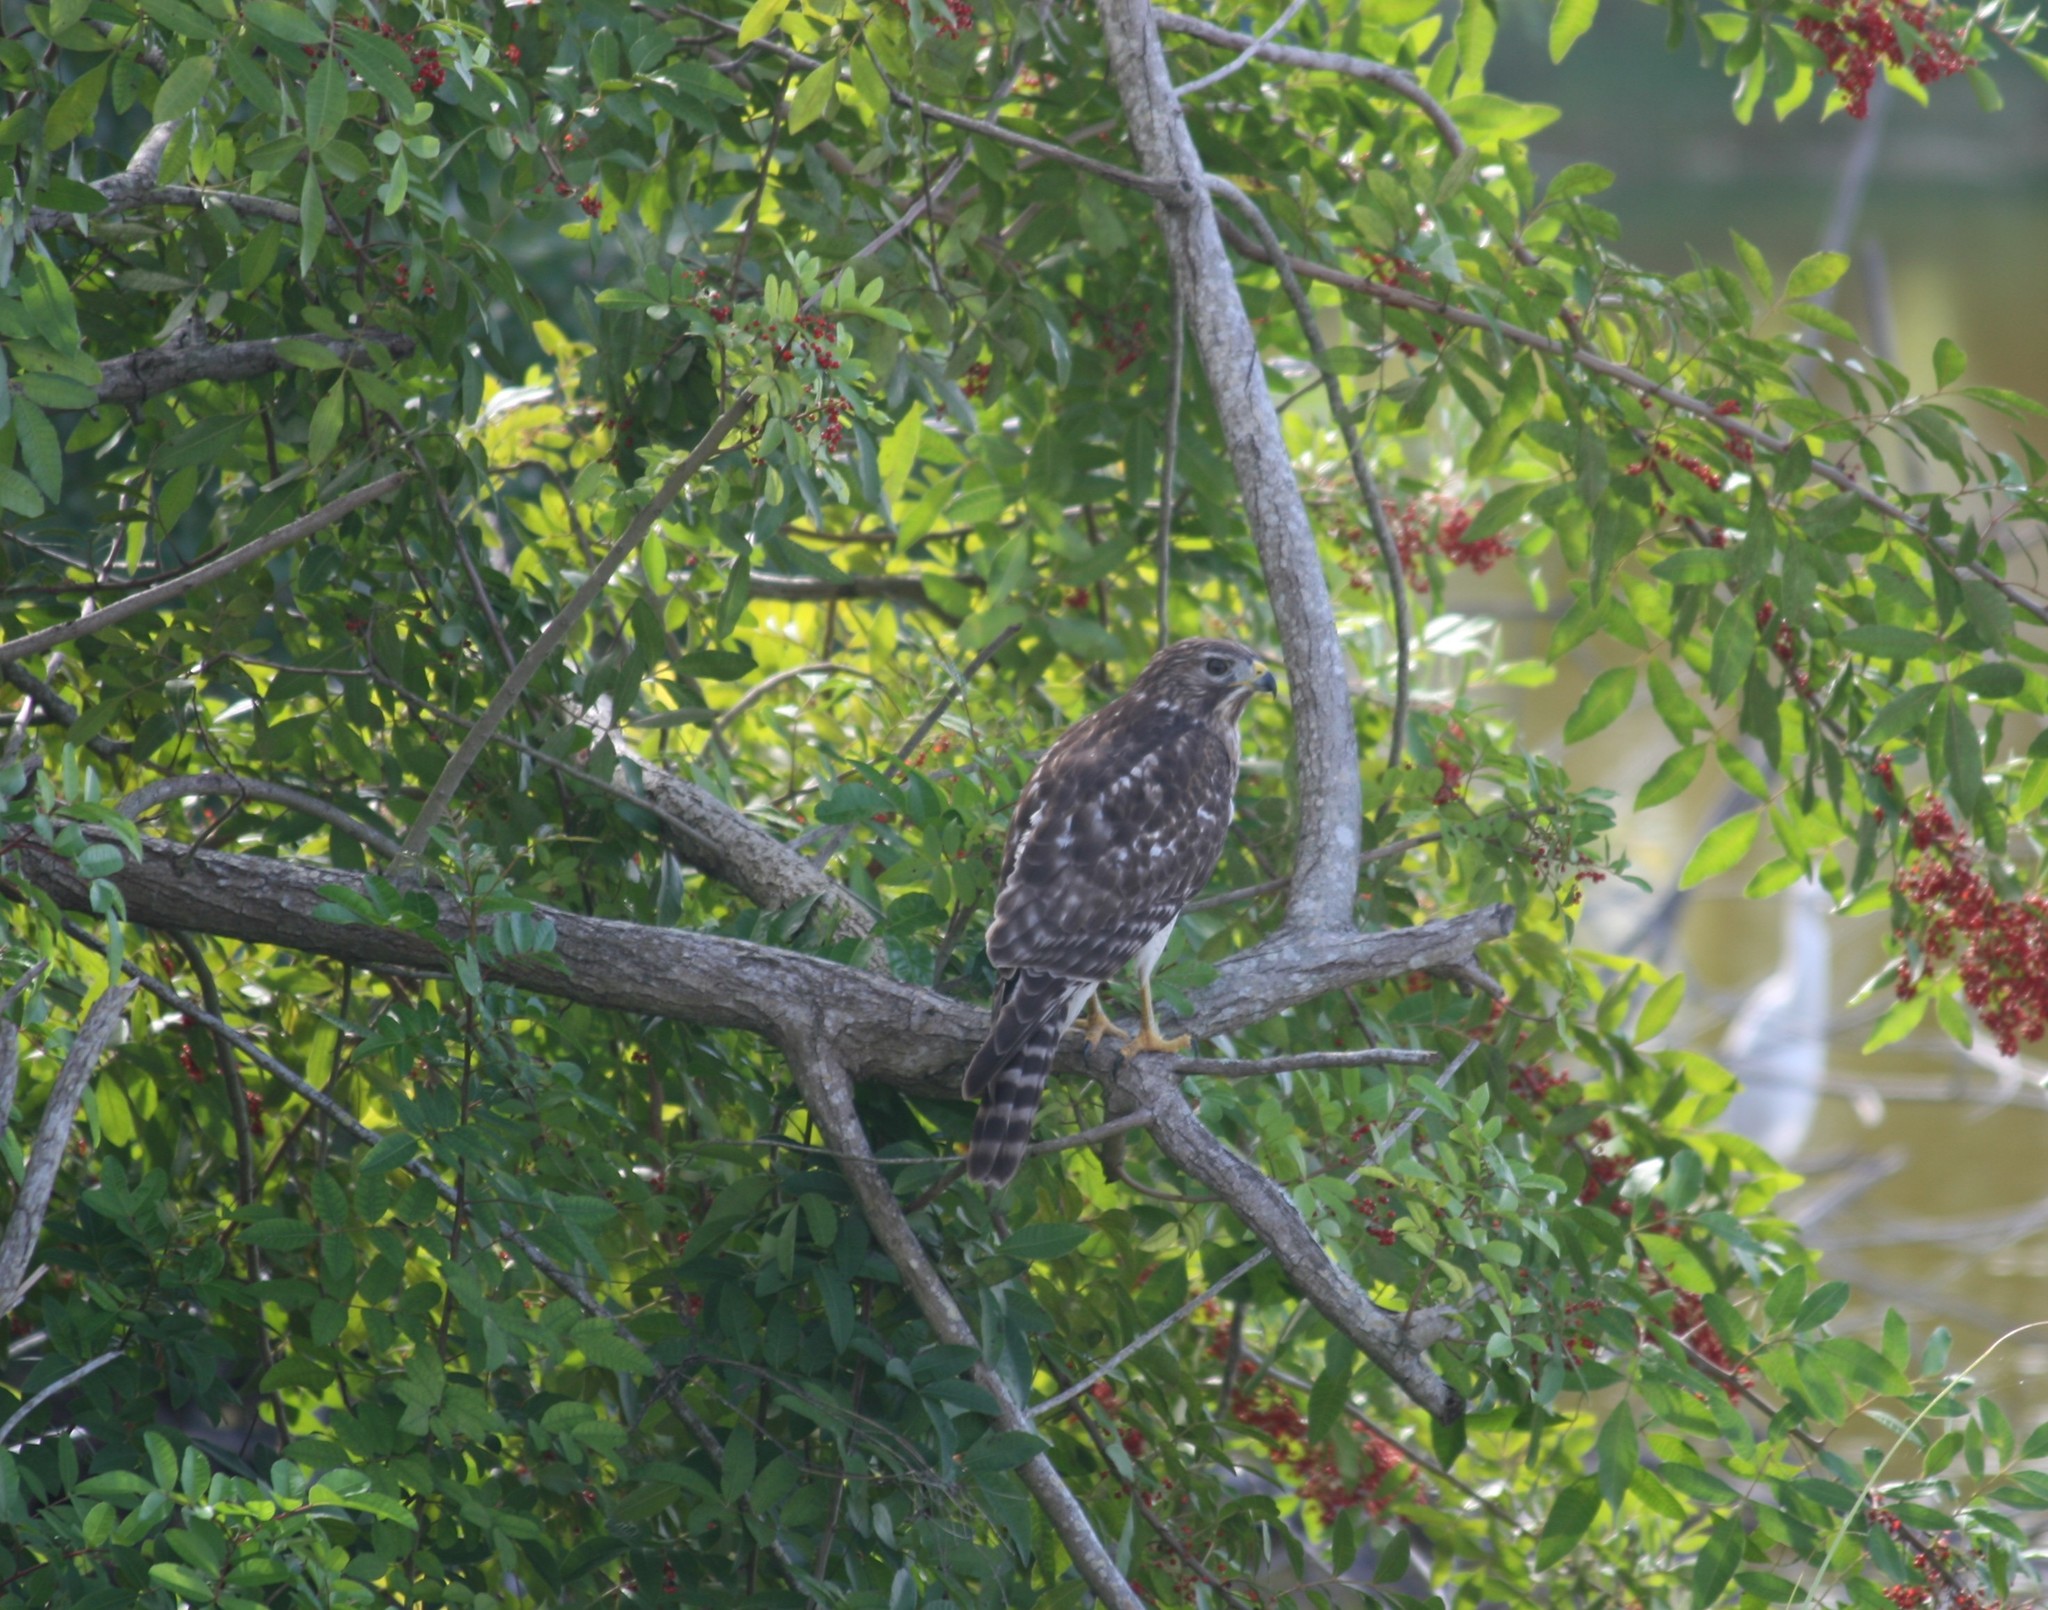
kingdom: Animalia
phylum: Chordata
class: Aves
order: Accipitriformes
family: Accipitridae
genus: Buteo
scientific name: Buteo lineatus
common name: Red-shouldered hawk
